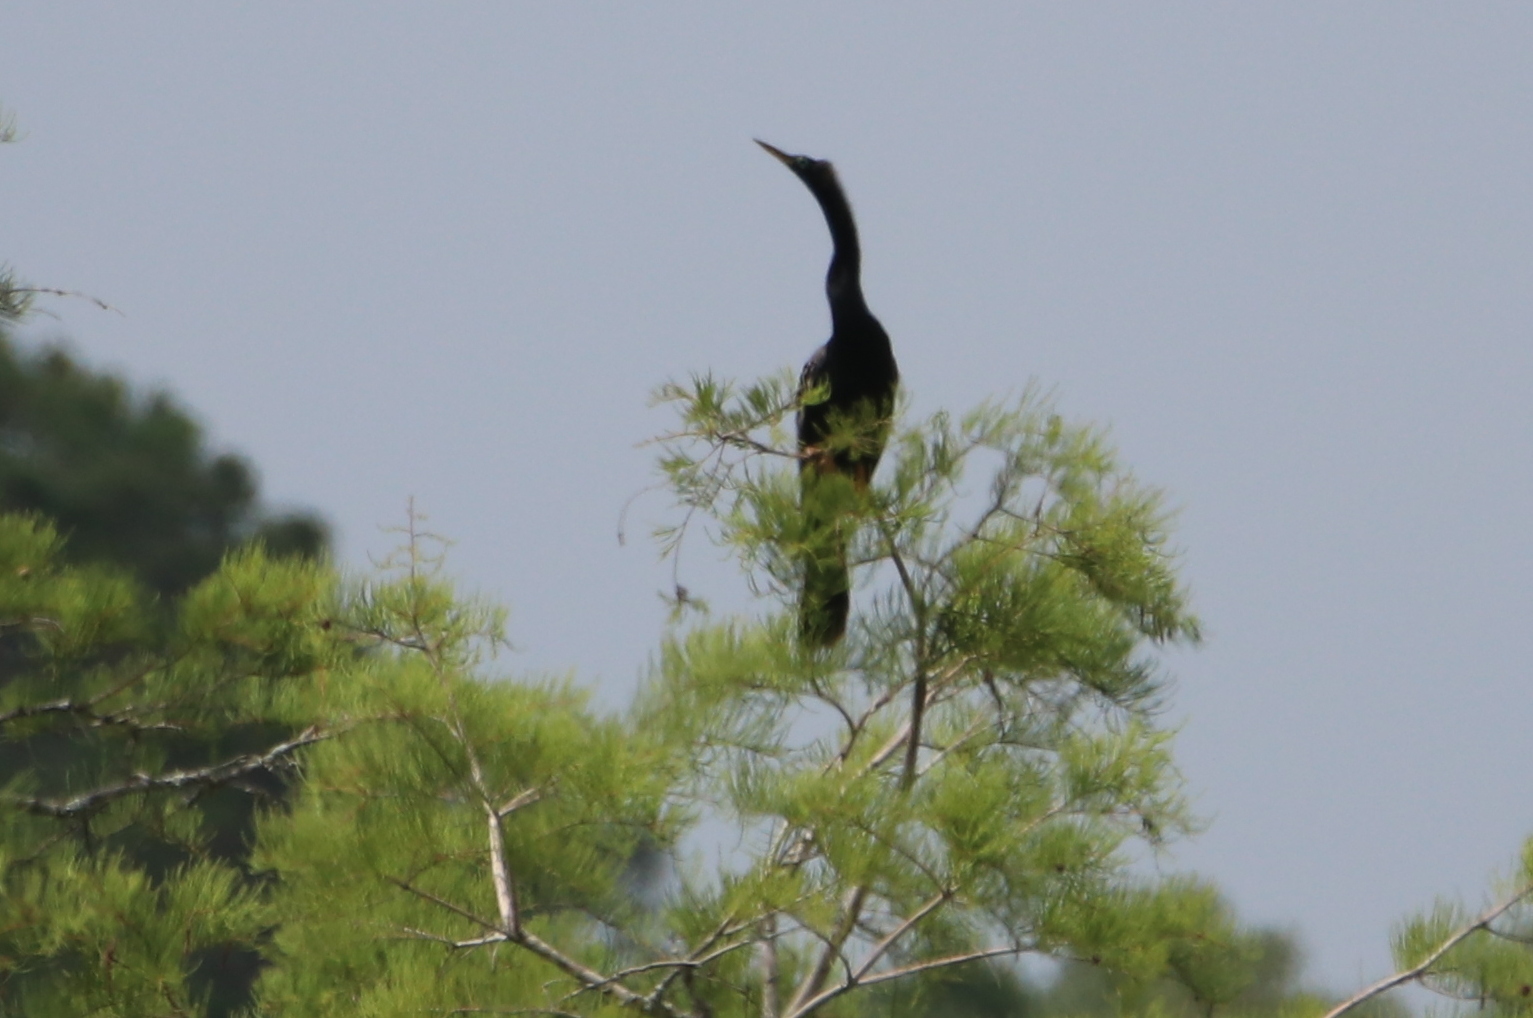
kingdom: Animalia
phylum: Chordata
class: Aves
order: Suliformes
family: Anhingidae
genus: Anhinga
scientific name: Anhinga anhinga
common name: Anhinga
